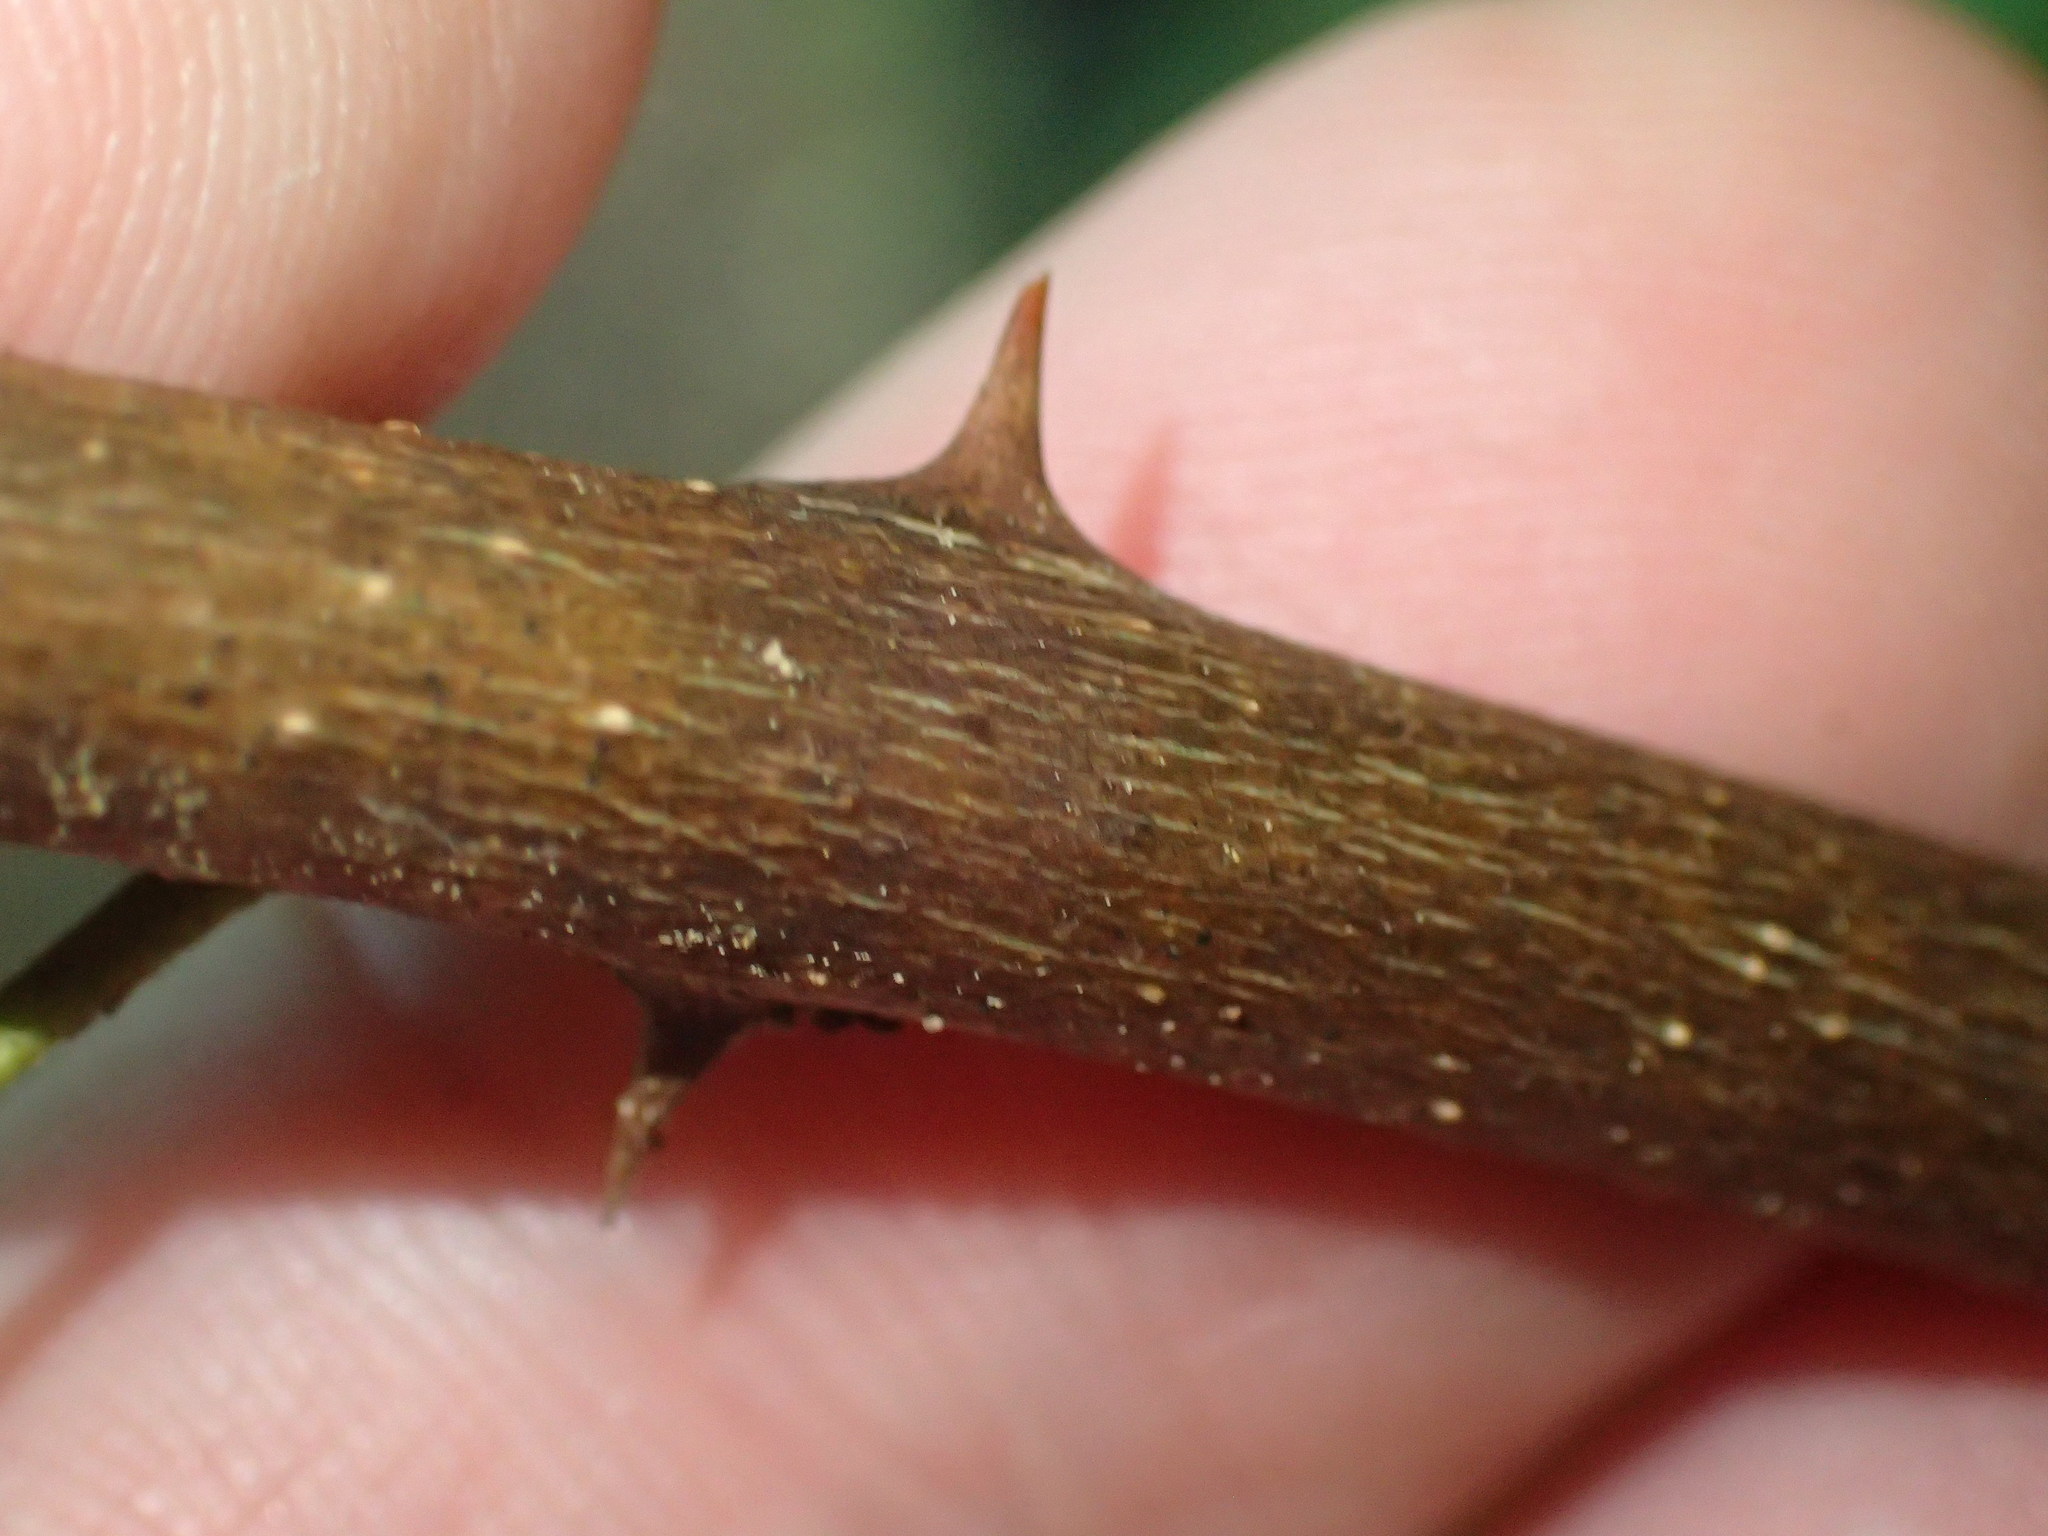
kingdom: Plantae
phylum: Tracheophyta
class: Magnoliopsida
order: Sapindales
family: Rutaceae
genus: Zanthoxylum
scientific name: Zanthoxylum americanum
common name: Northern prickly-ash
